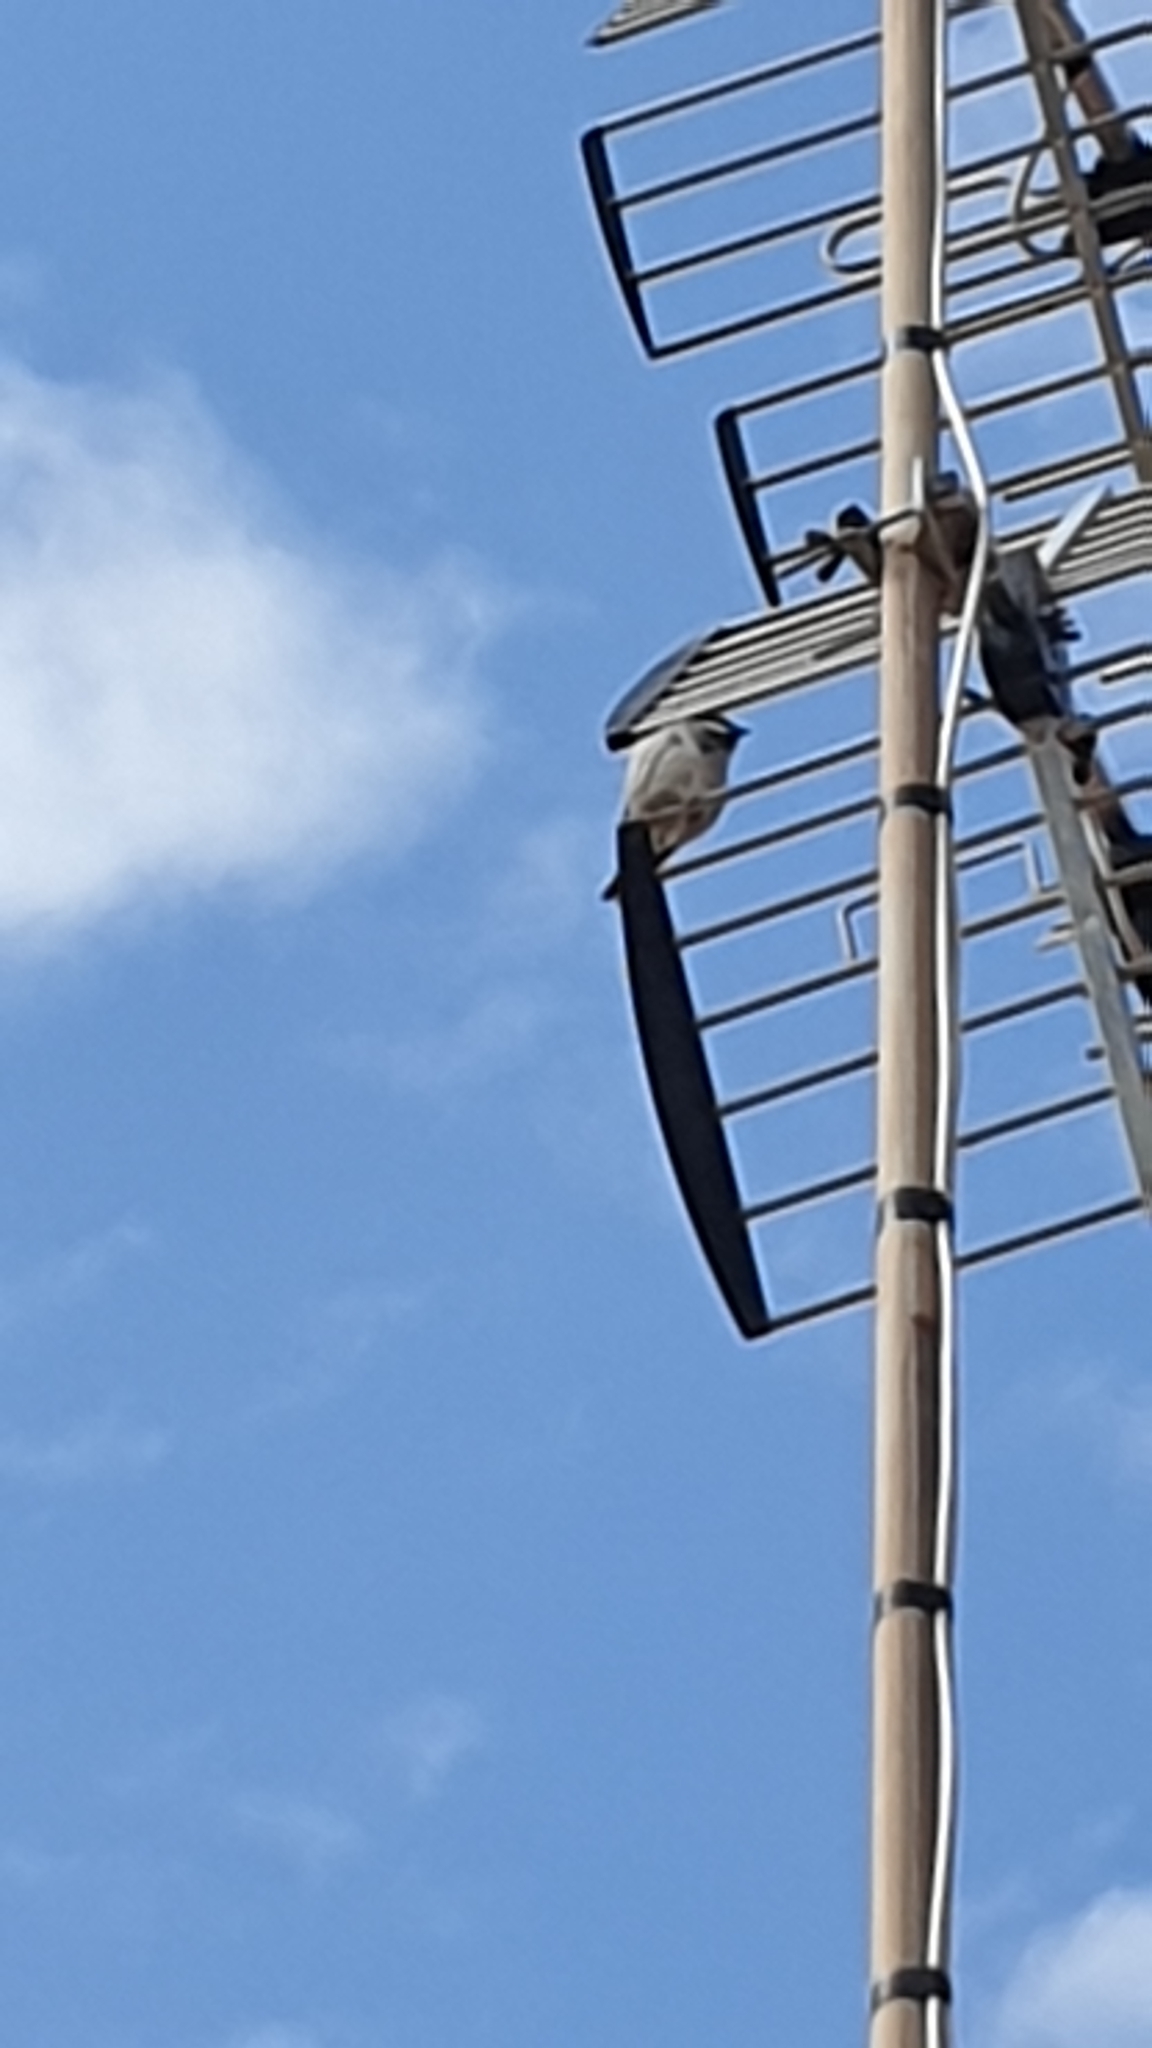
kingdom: Animalia
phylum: Chordata
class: Aves
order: Passeriformes
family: Passeridae
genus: Passer
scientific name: Passer domesticus
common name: House sparrow
